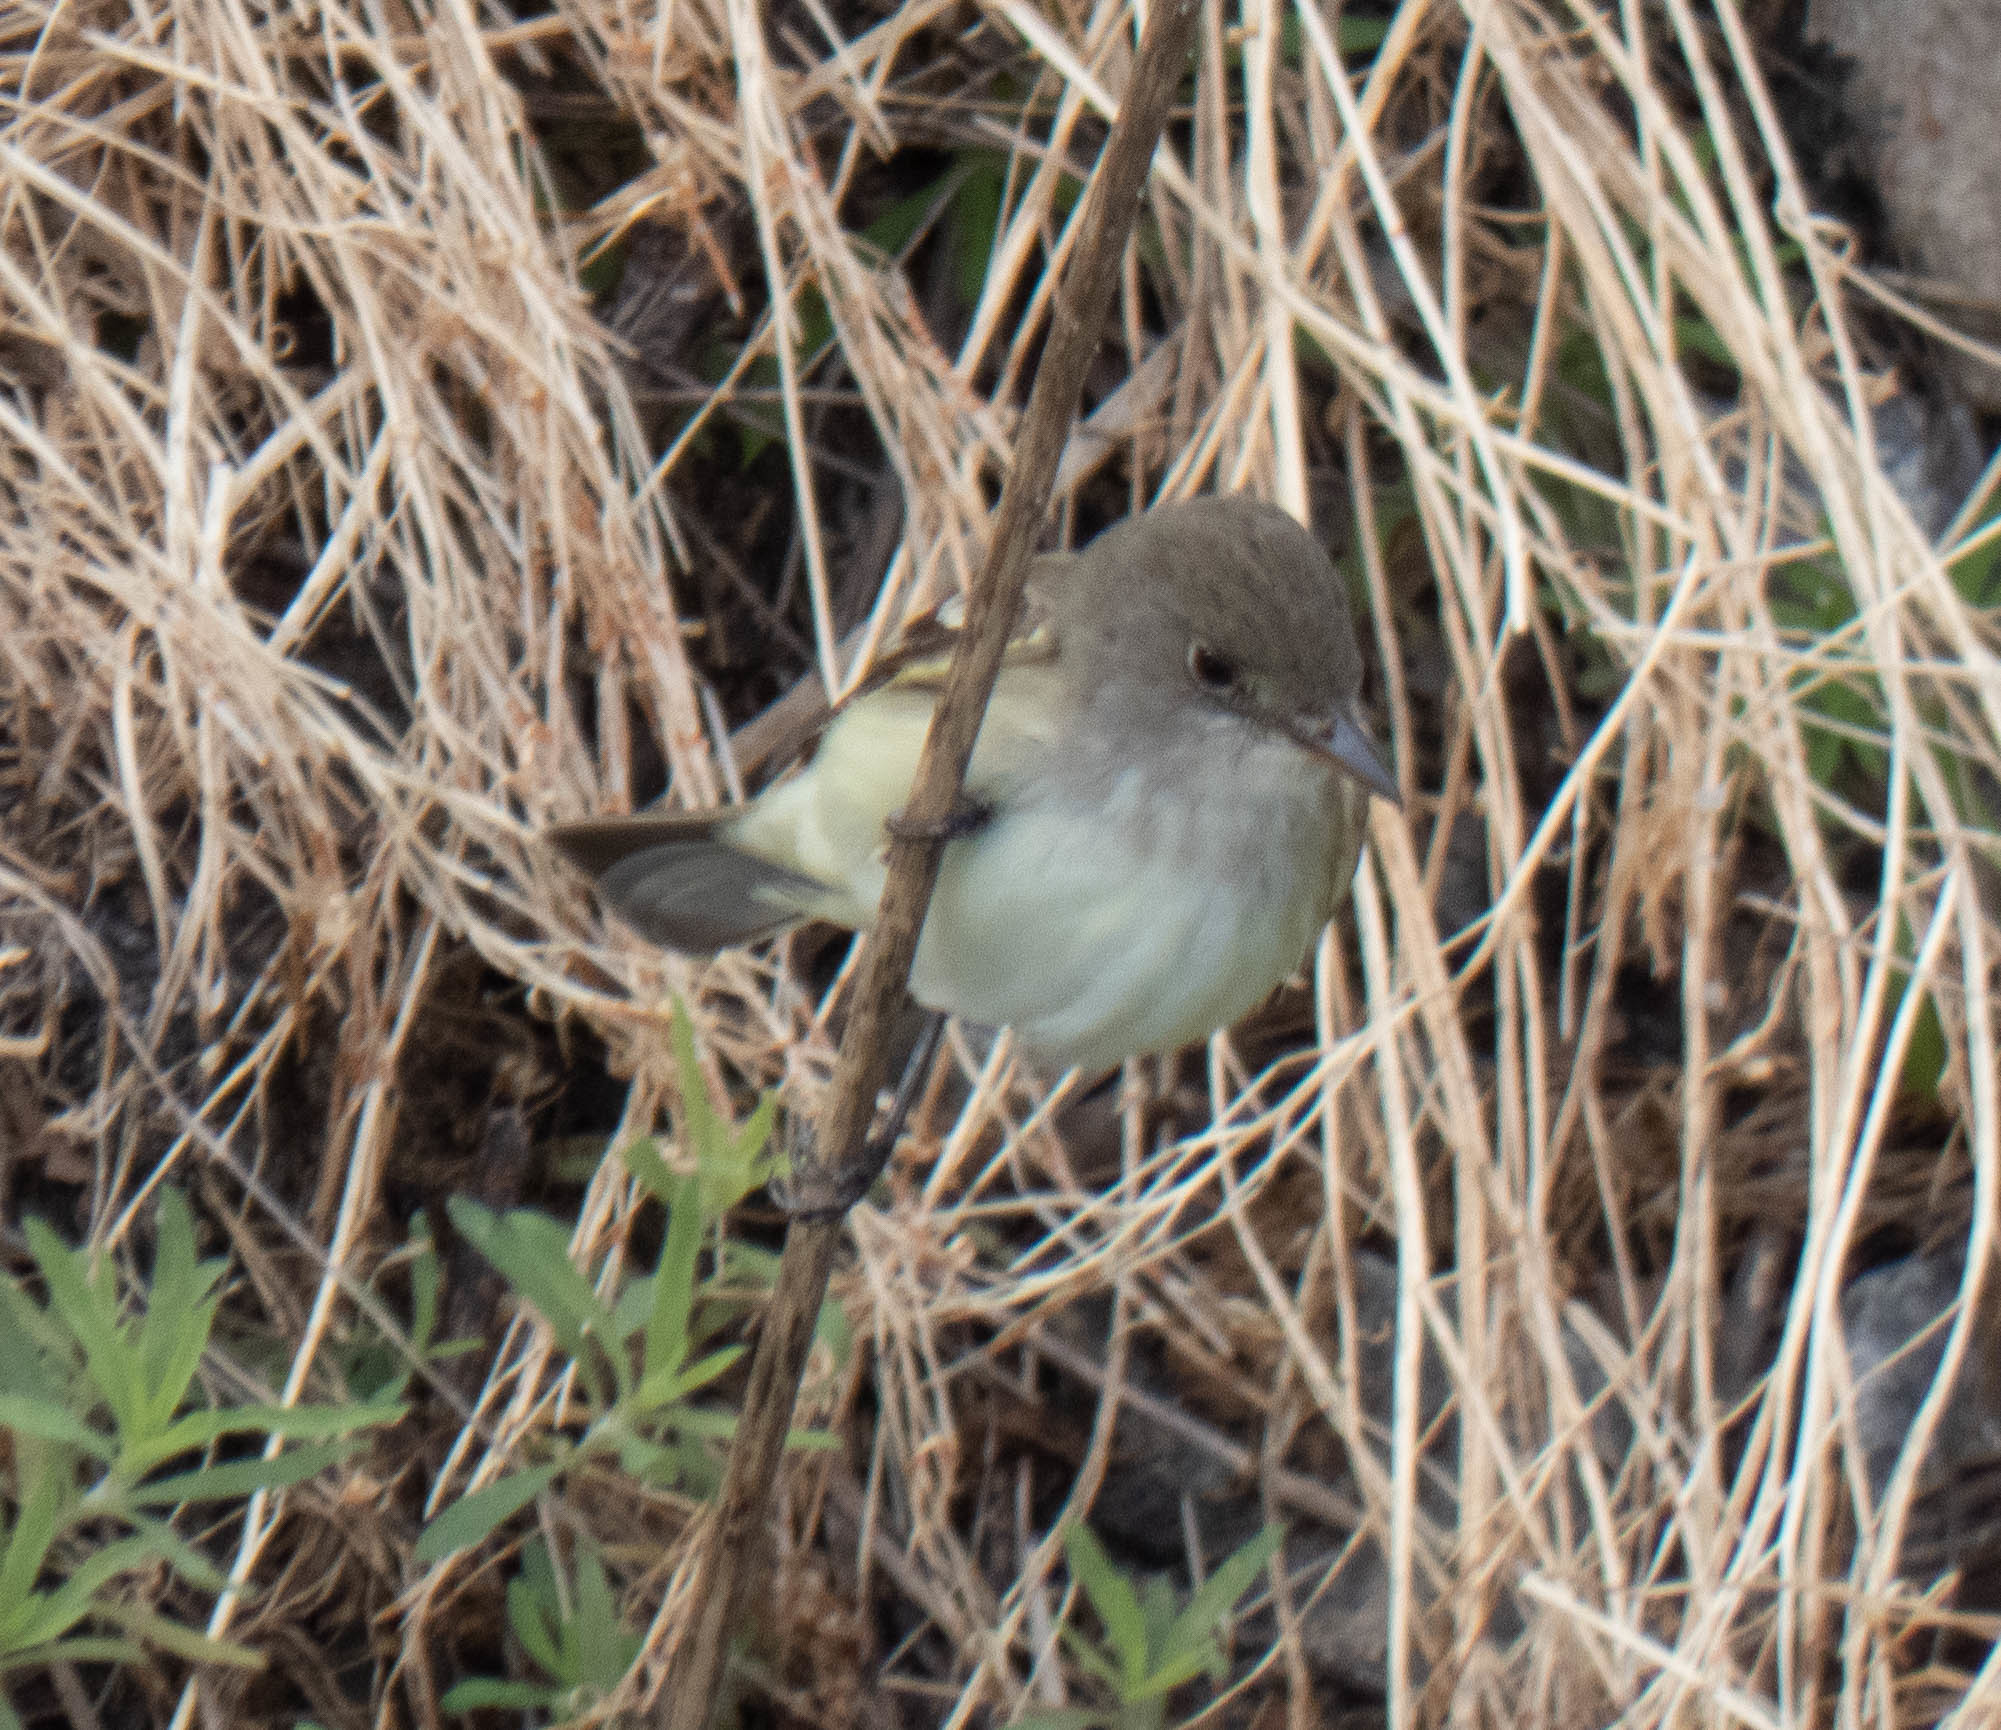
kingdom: Animalia
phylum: Chordata
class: Aves
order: Passeriformes
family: Tyrannidae
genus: Empidonax
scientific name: Empidonax
